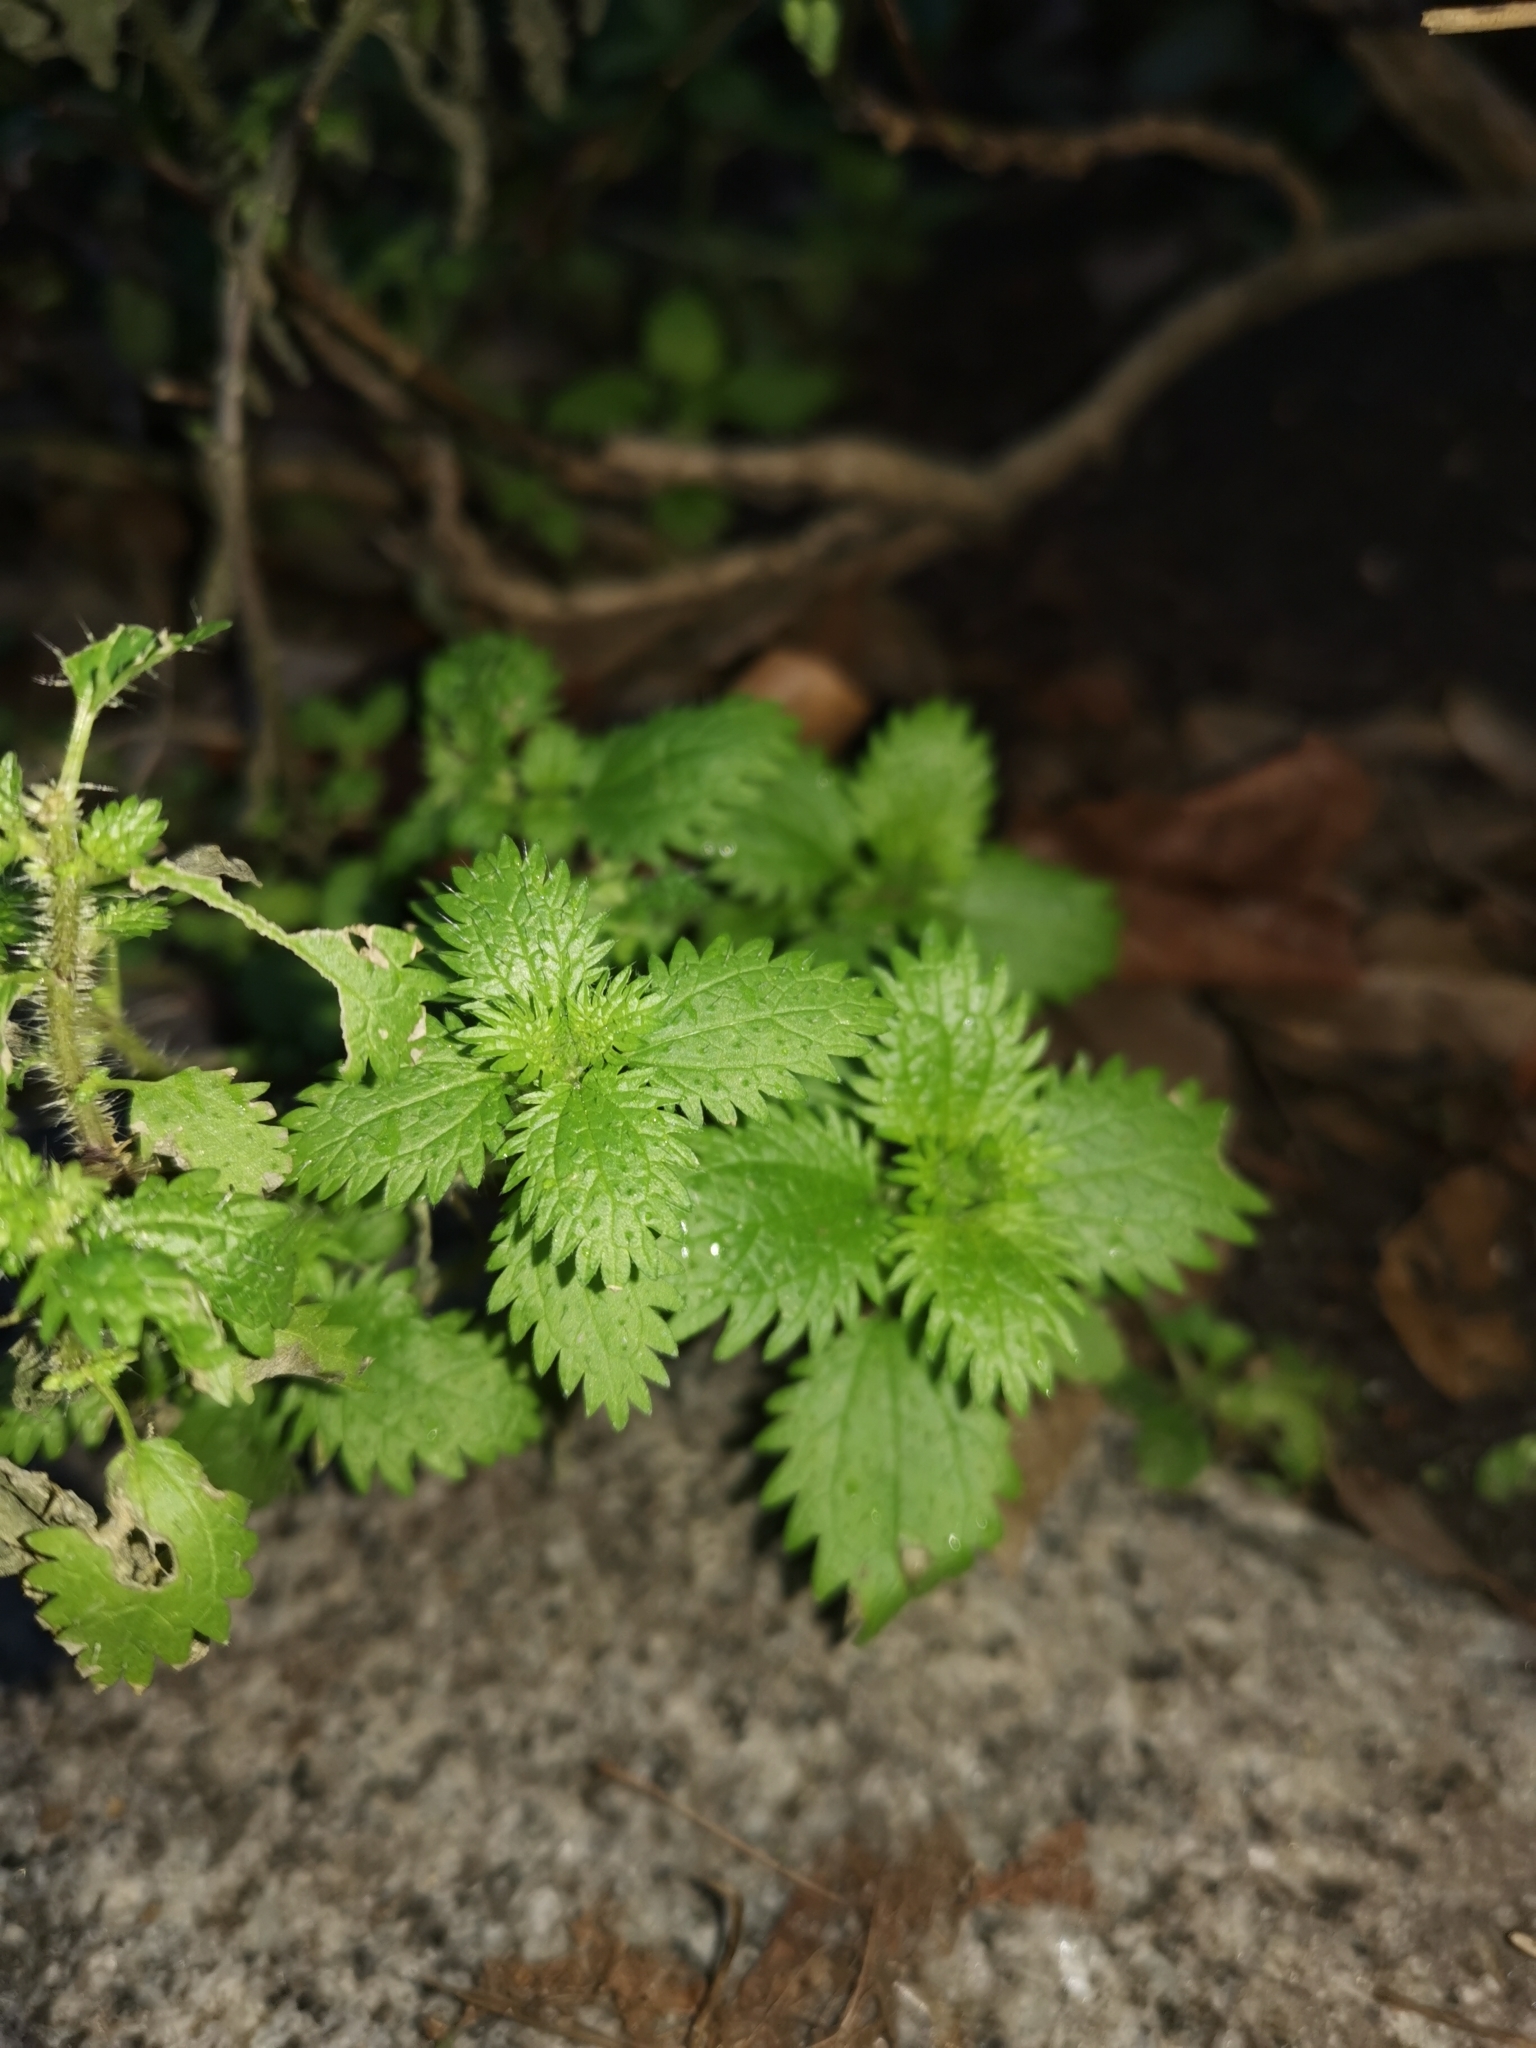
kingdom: Plantae
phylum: Tracheophyta
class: Magnoliopsida
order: Rosales
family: Urticaceae
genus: Urtica
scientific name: Urtica urens
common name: Dwarf nettle
